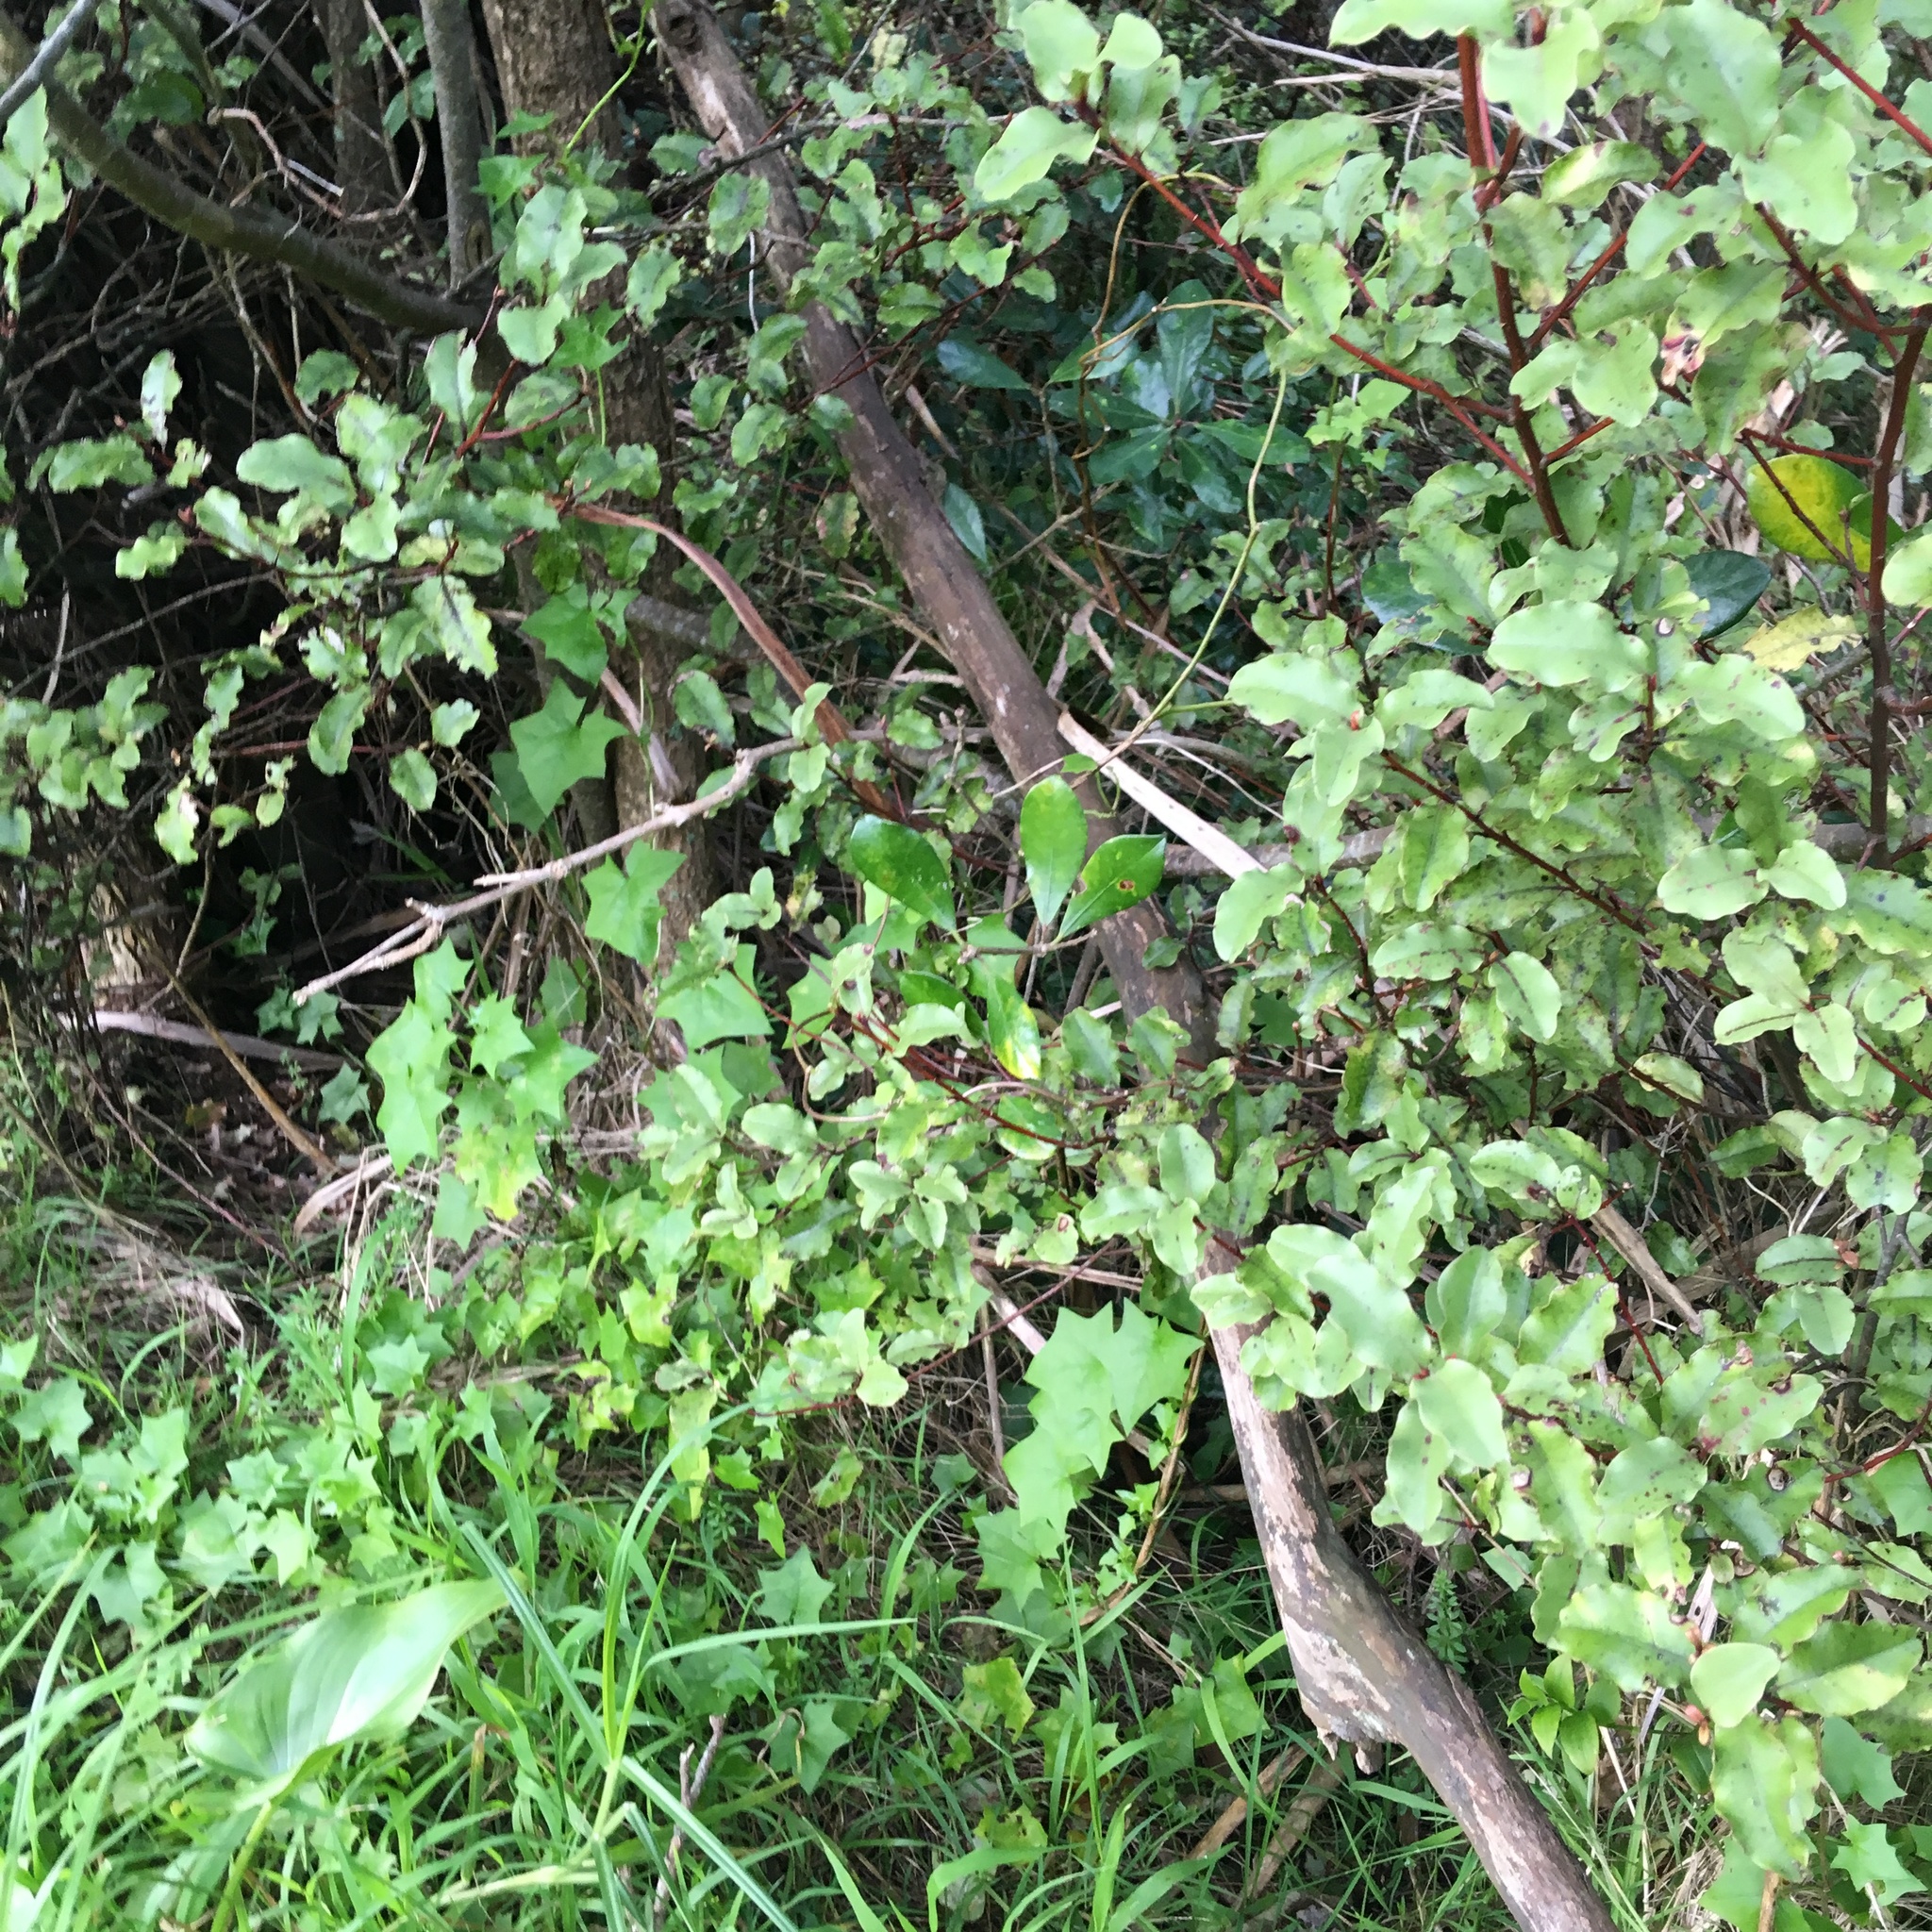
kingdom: Plantae
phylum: Tracheophyta
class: Magnoliopsida
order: Asterales
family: Asteraceae
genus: Delairea
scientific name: Delairea odorata
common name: Cape-ivy
